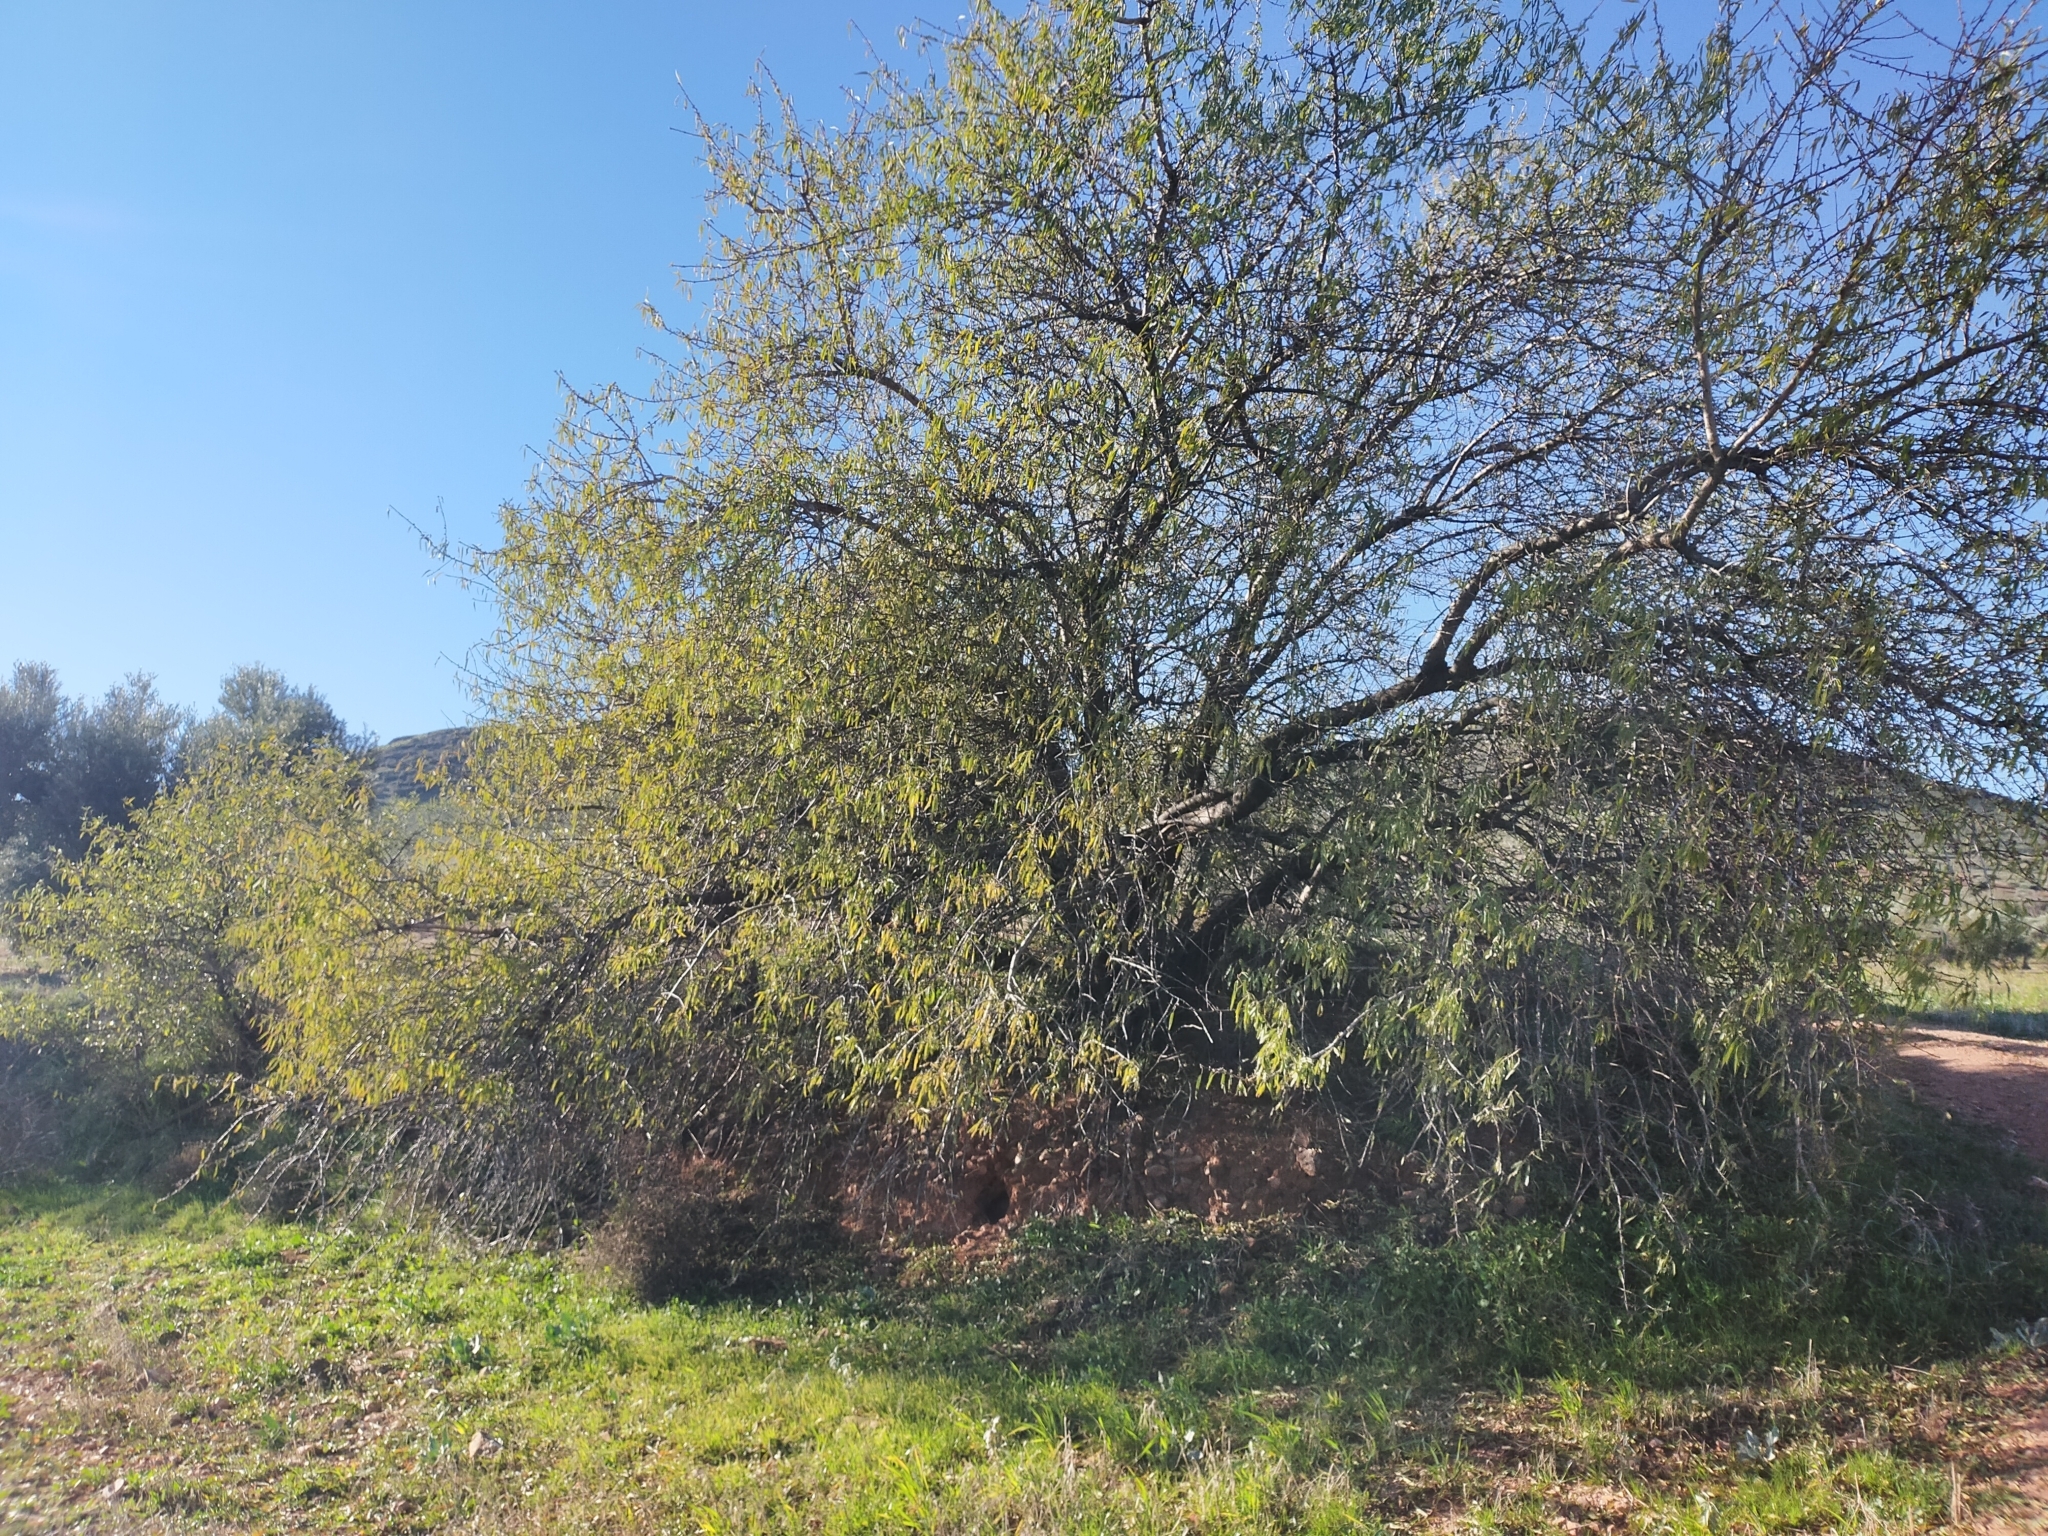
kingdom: Plantae
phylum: Tracheophyta
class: Magnoliopsida
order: Rosales
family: Rosaceae
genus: Prunus
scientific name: Prunus amygdalus
